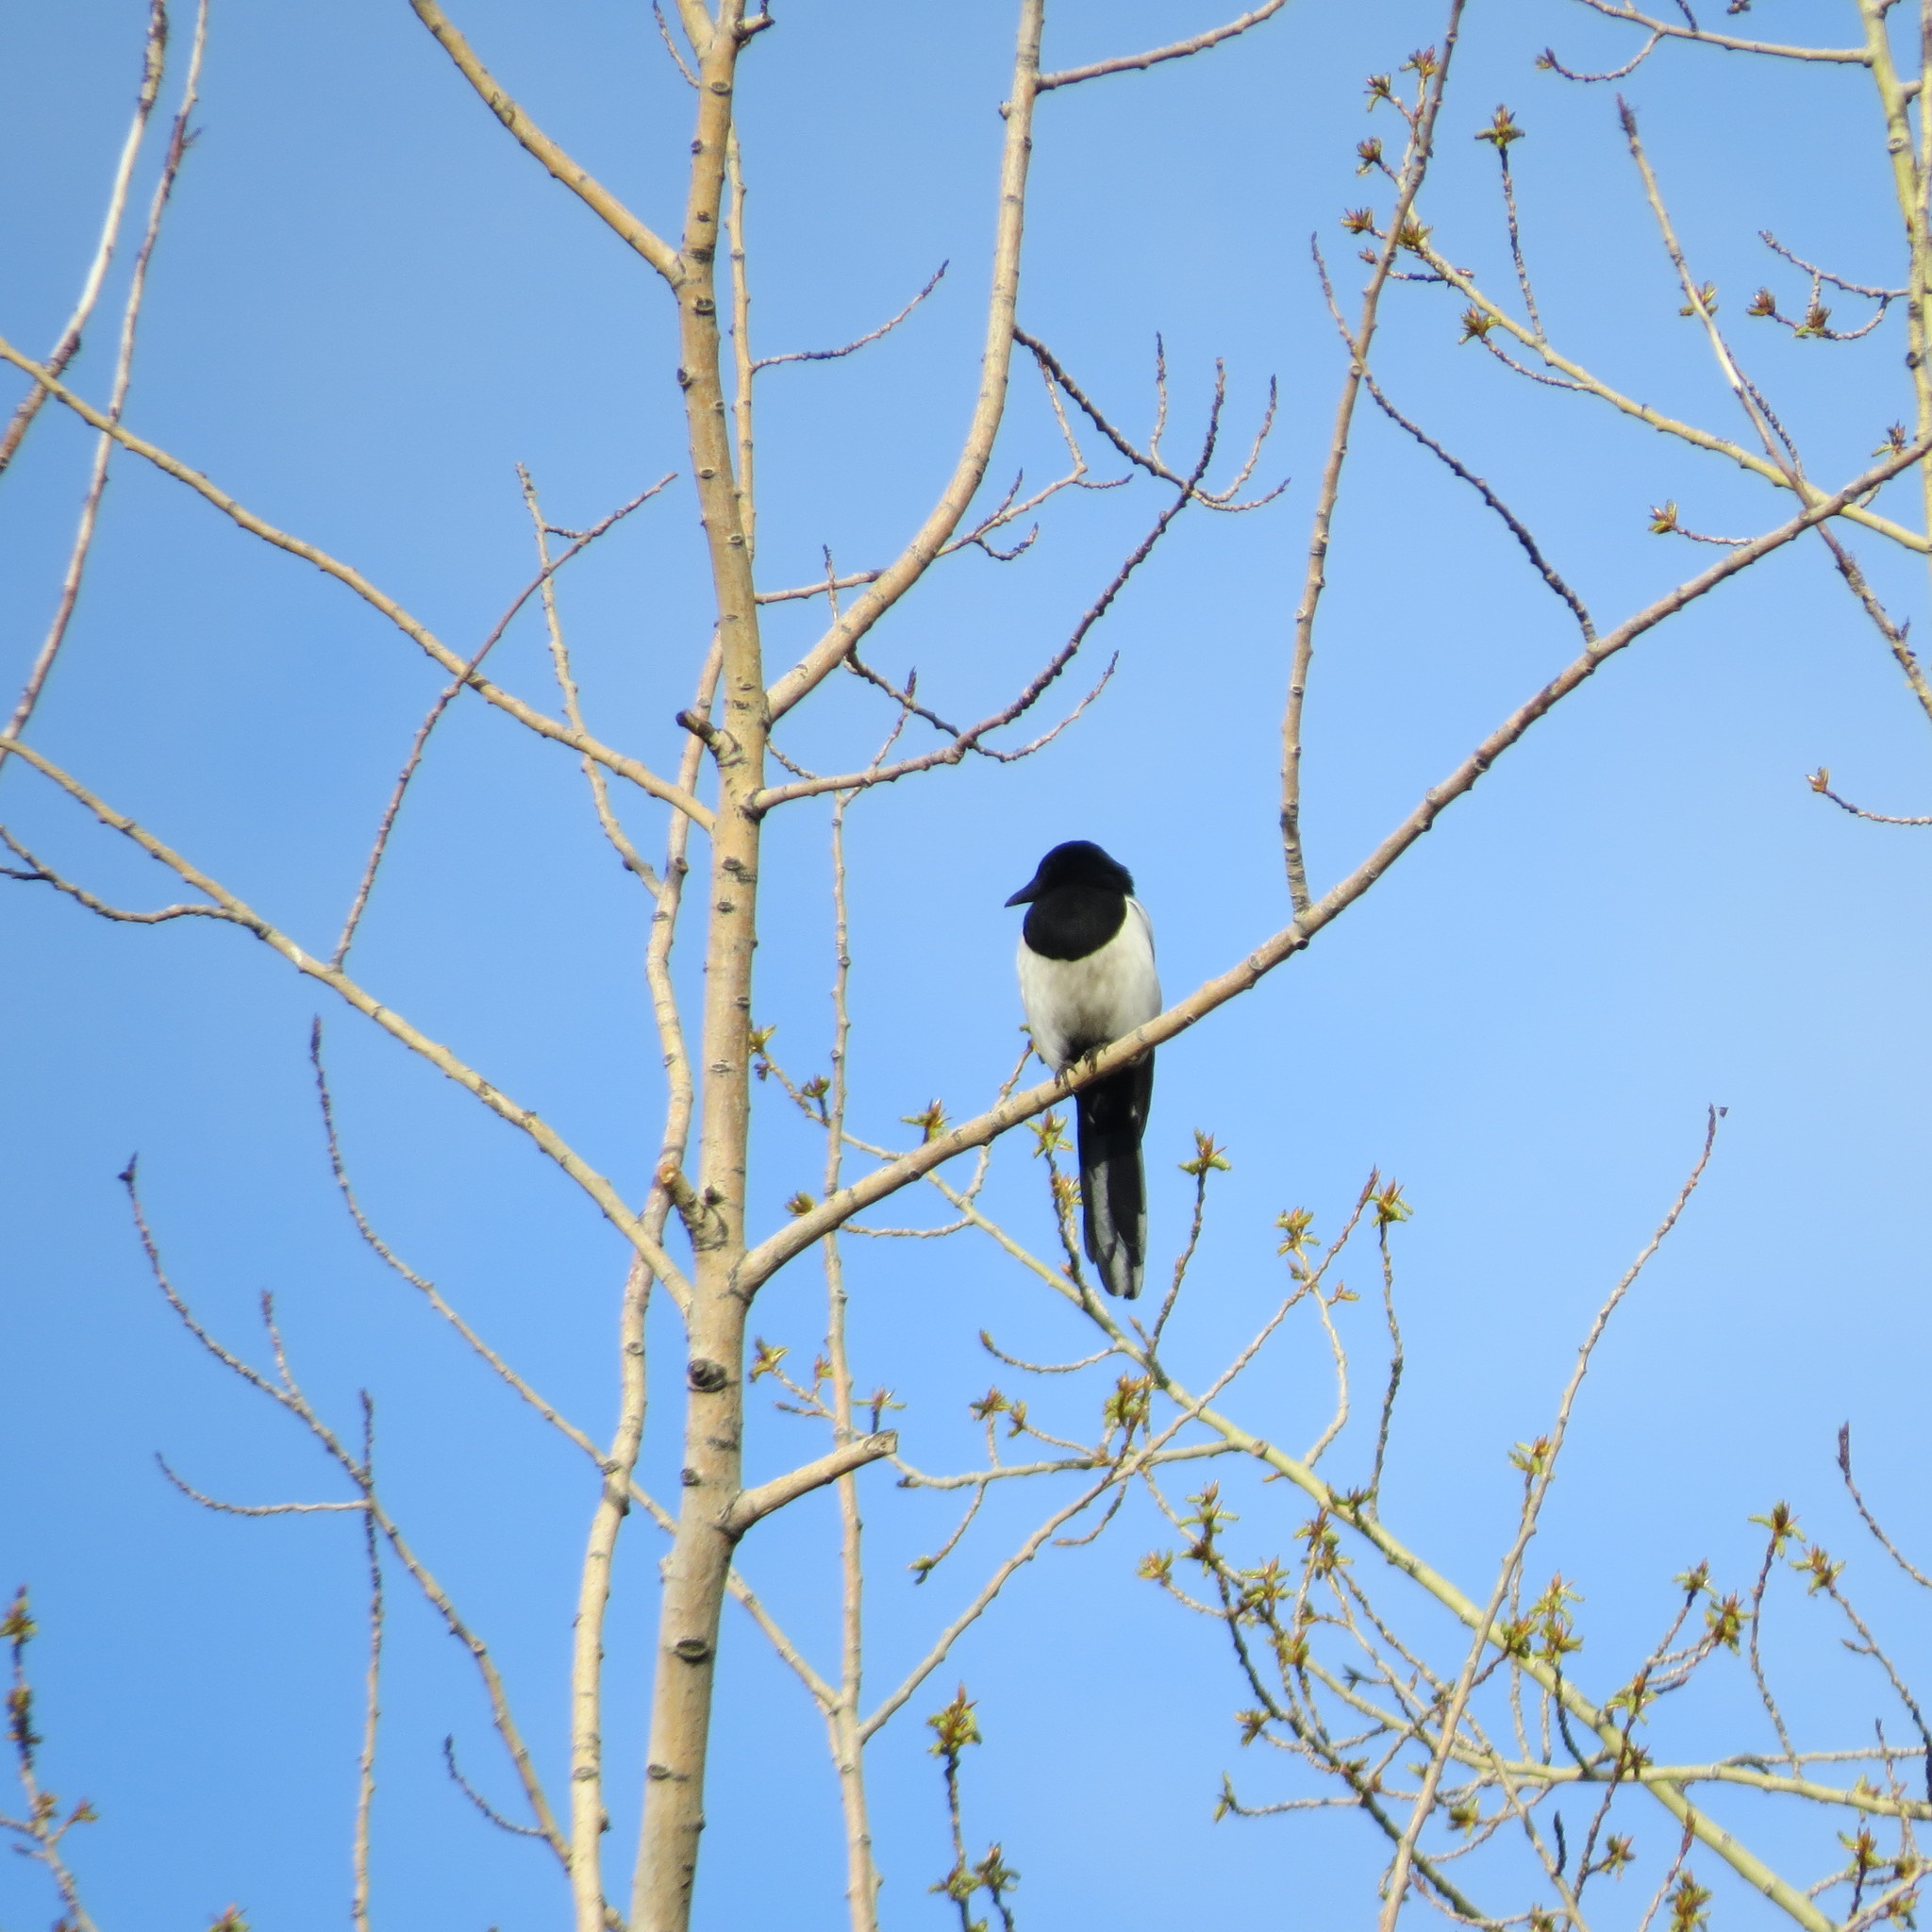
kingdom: Animalia
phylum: Chordata
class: Aves
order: Passeriformes
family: Corvidae
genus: Pica
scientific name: Pica pica
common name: Eurasian magpie
